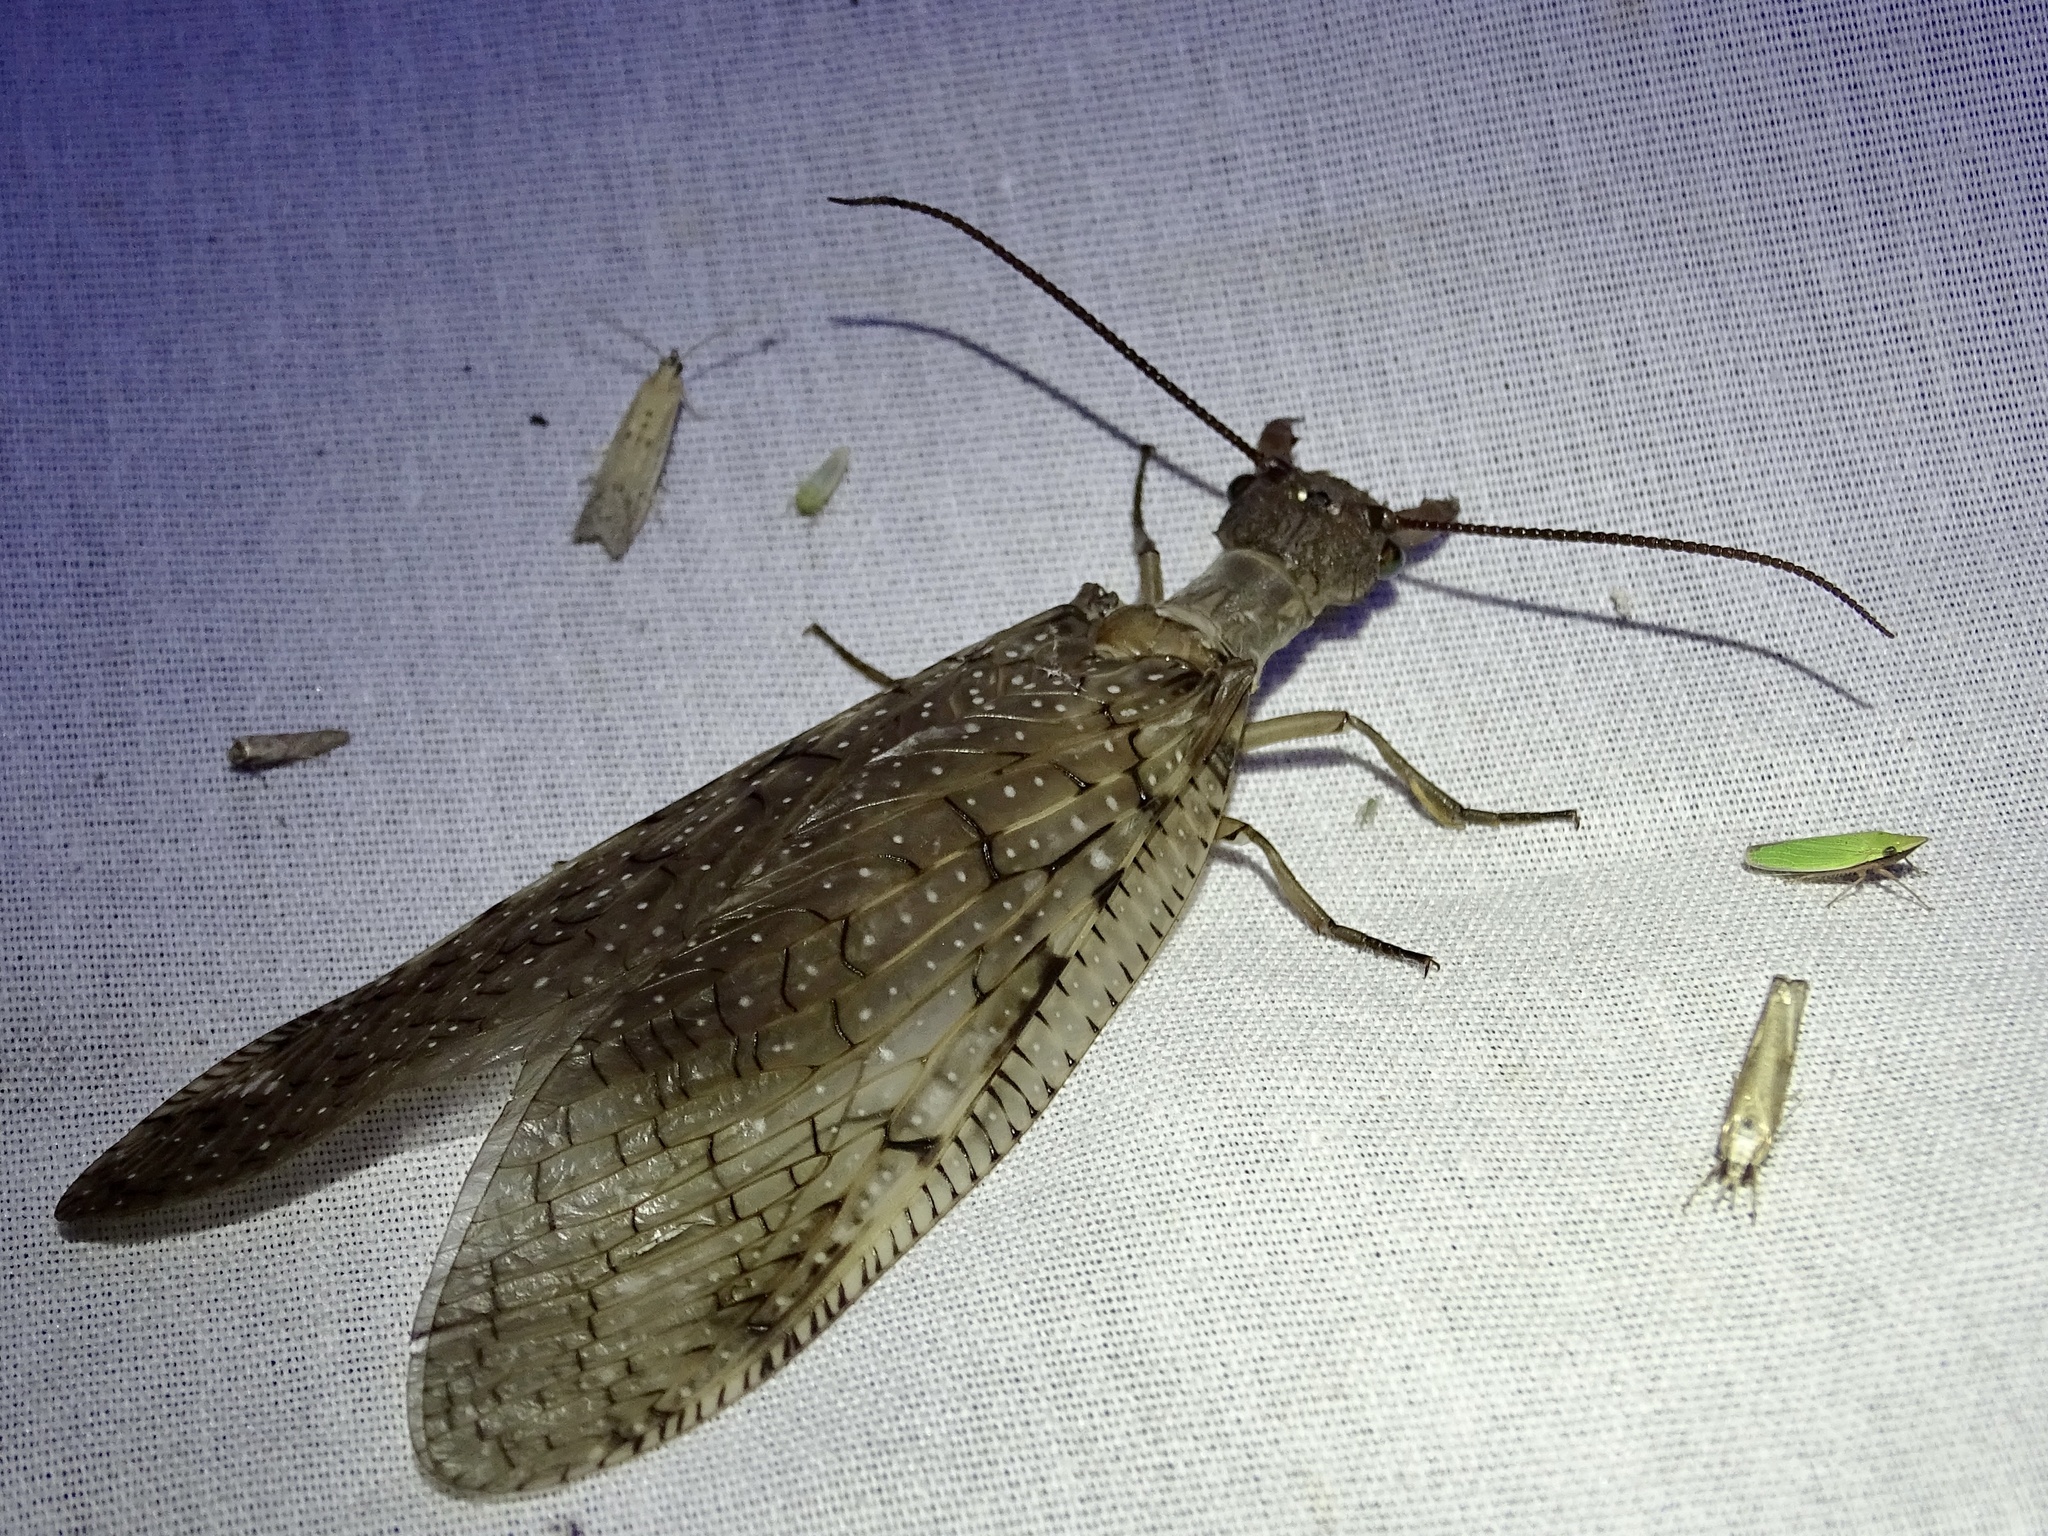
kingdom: Animalia
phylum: Arthropoda
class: Insecta
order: Megaloptera
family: Corydalidae
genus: Corydalus
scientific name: Corydalus cornutus
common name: Dobsonfly
